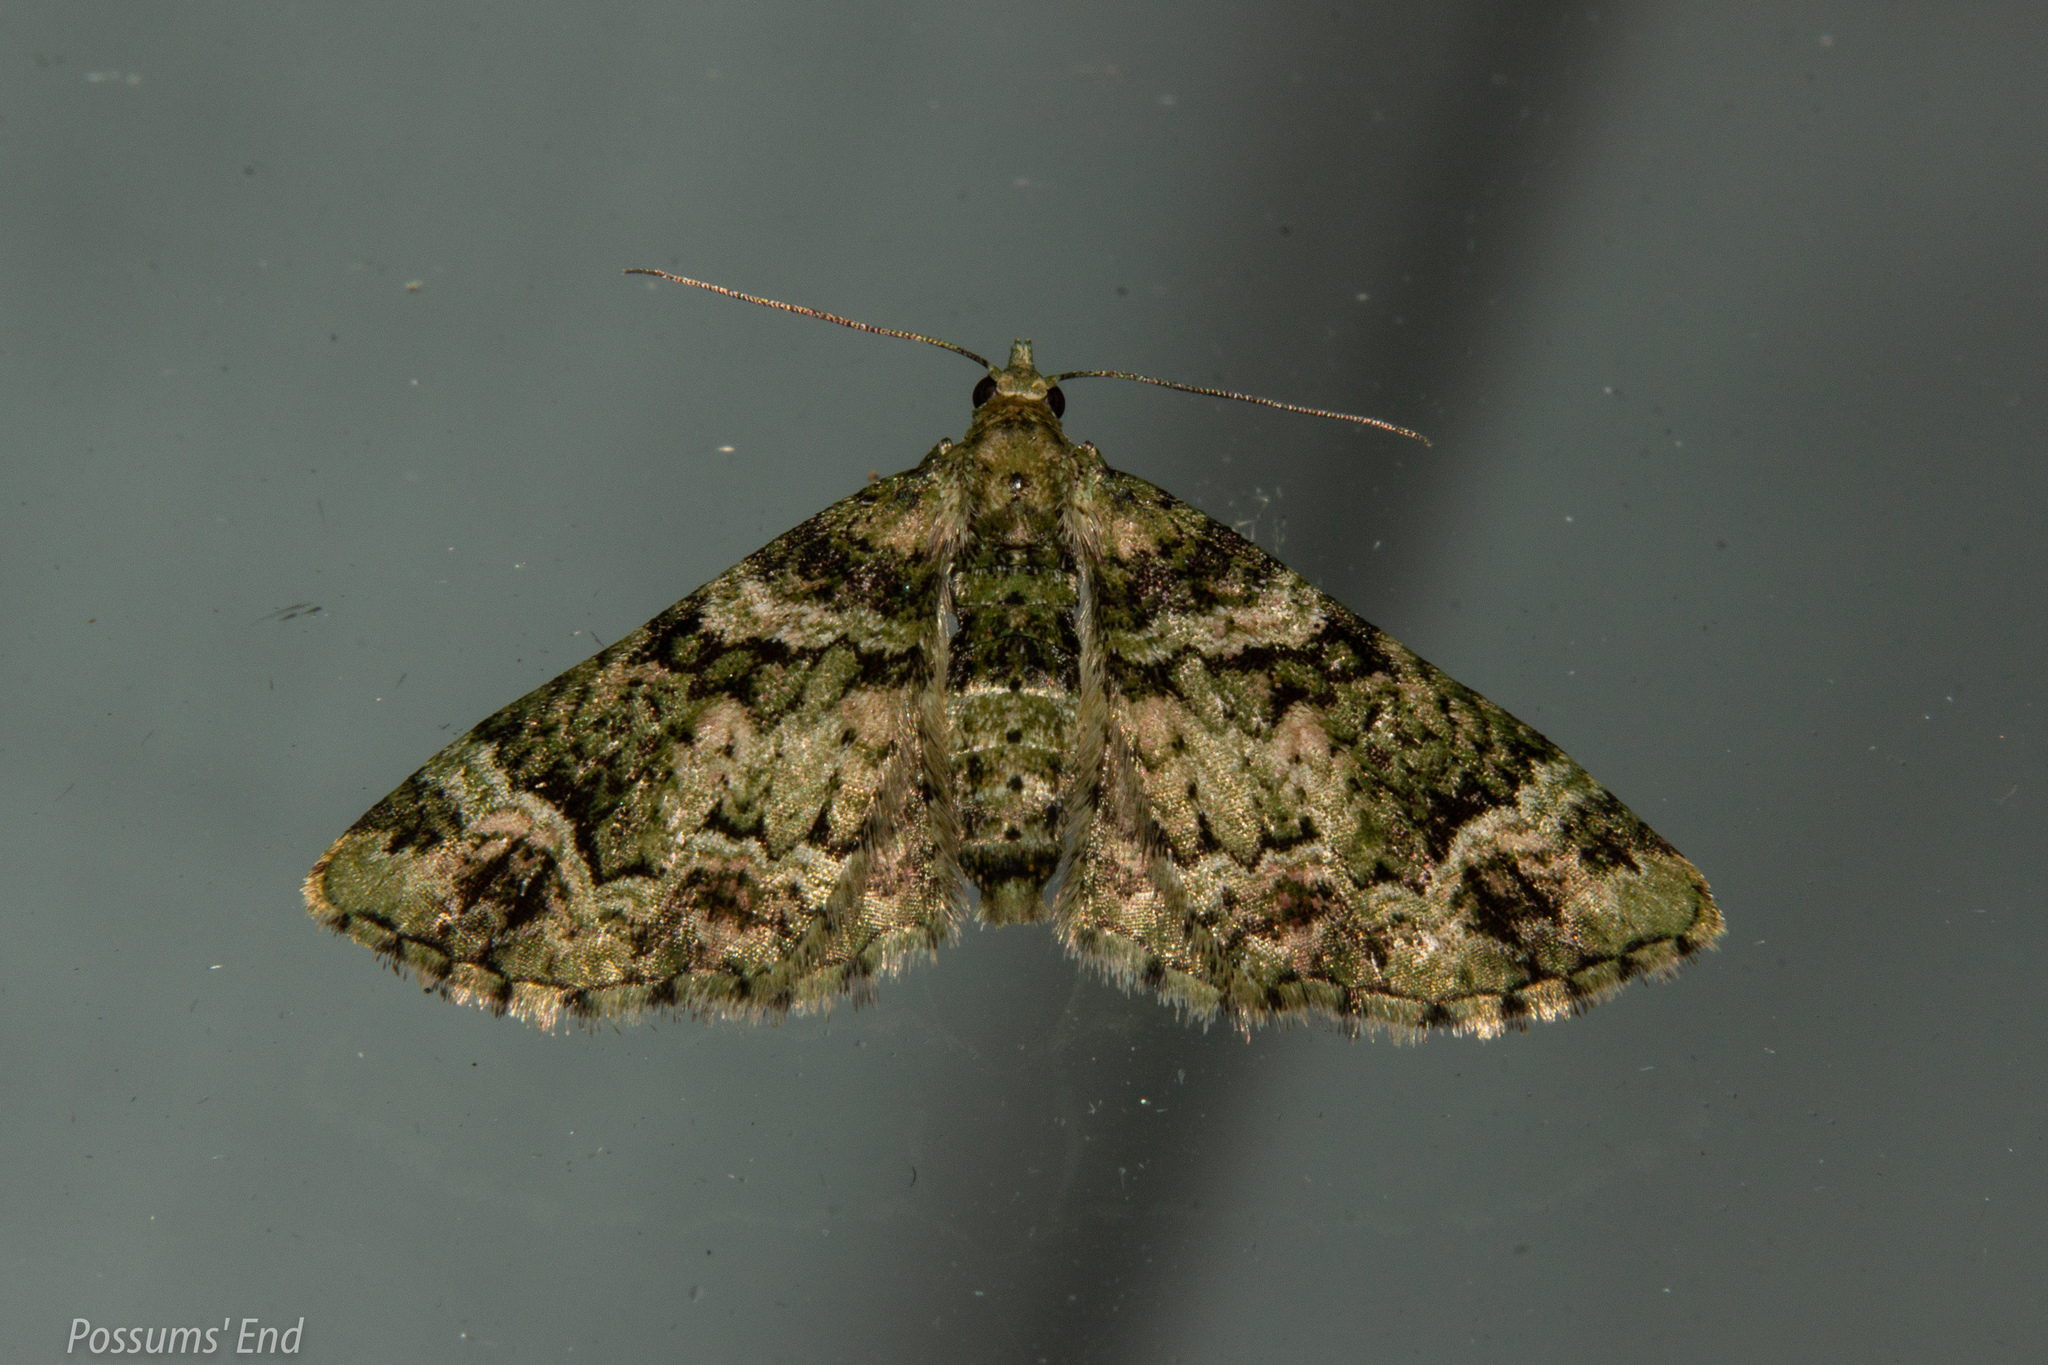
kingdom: Animalia
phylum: Arthropoda
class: Insecta
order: Lepidoptera
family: Geometridae
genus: Pasiphila
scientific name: Pasiphila muscosata
